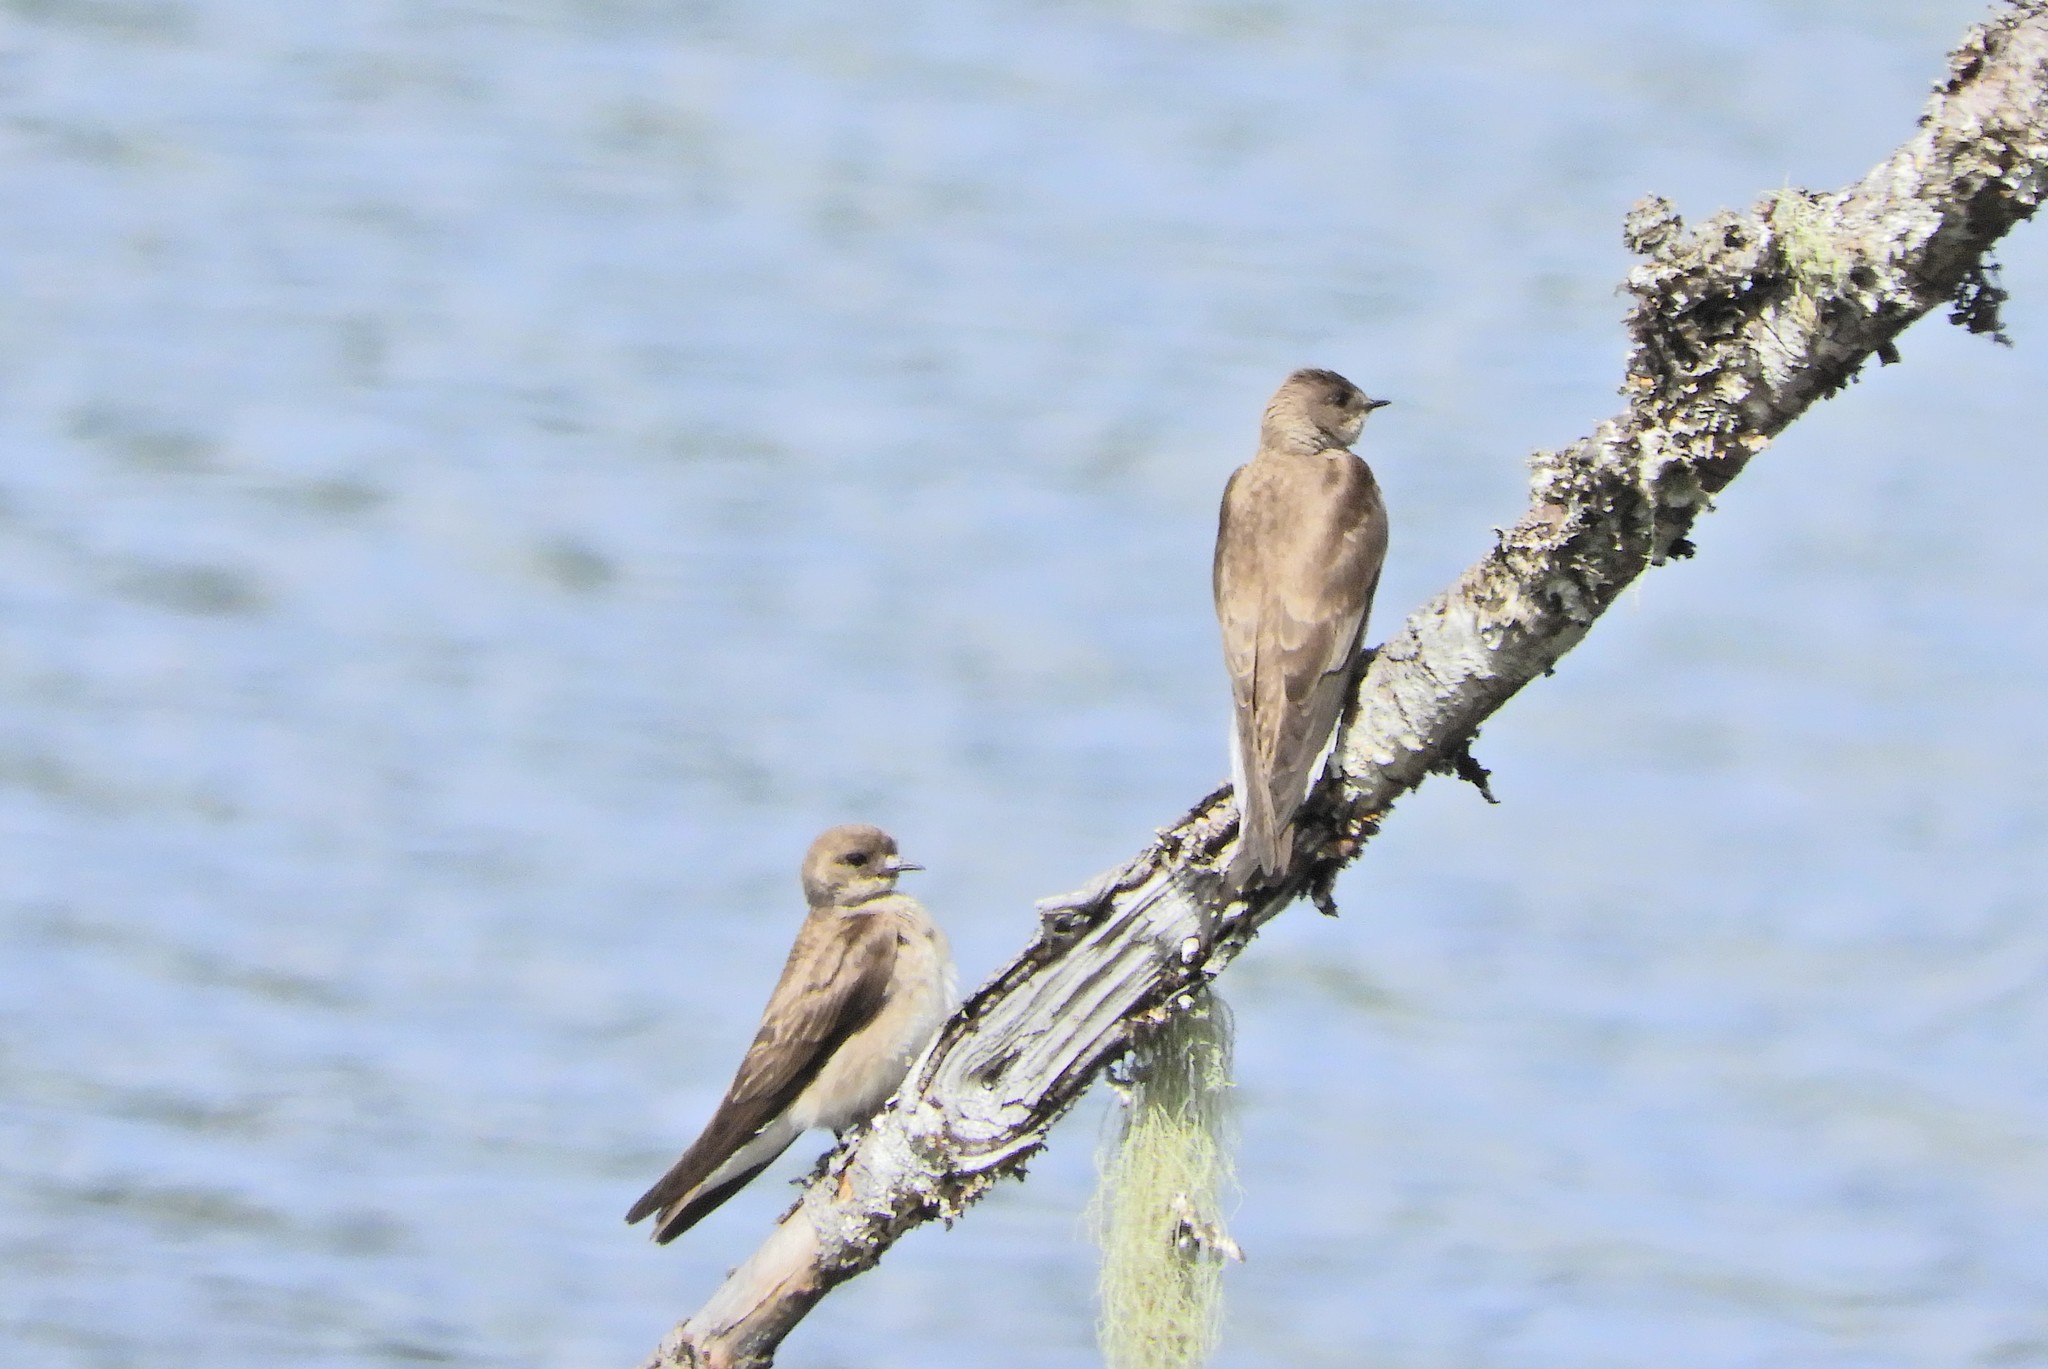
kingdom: Animalia
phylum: Chordata
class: Aves
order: Passeriformes
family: Hirundinidae
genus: Stelgidopteryx
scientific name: Stelgidopteryx serripennis
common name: Northern rough-winged swallow
